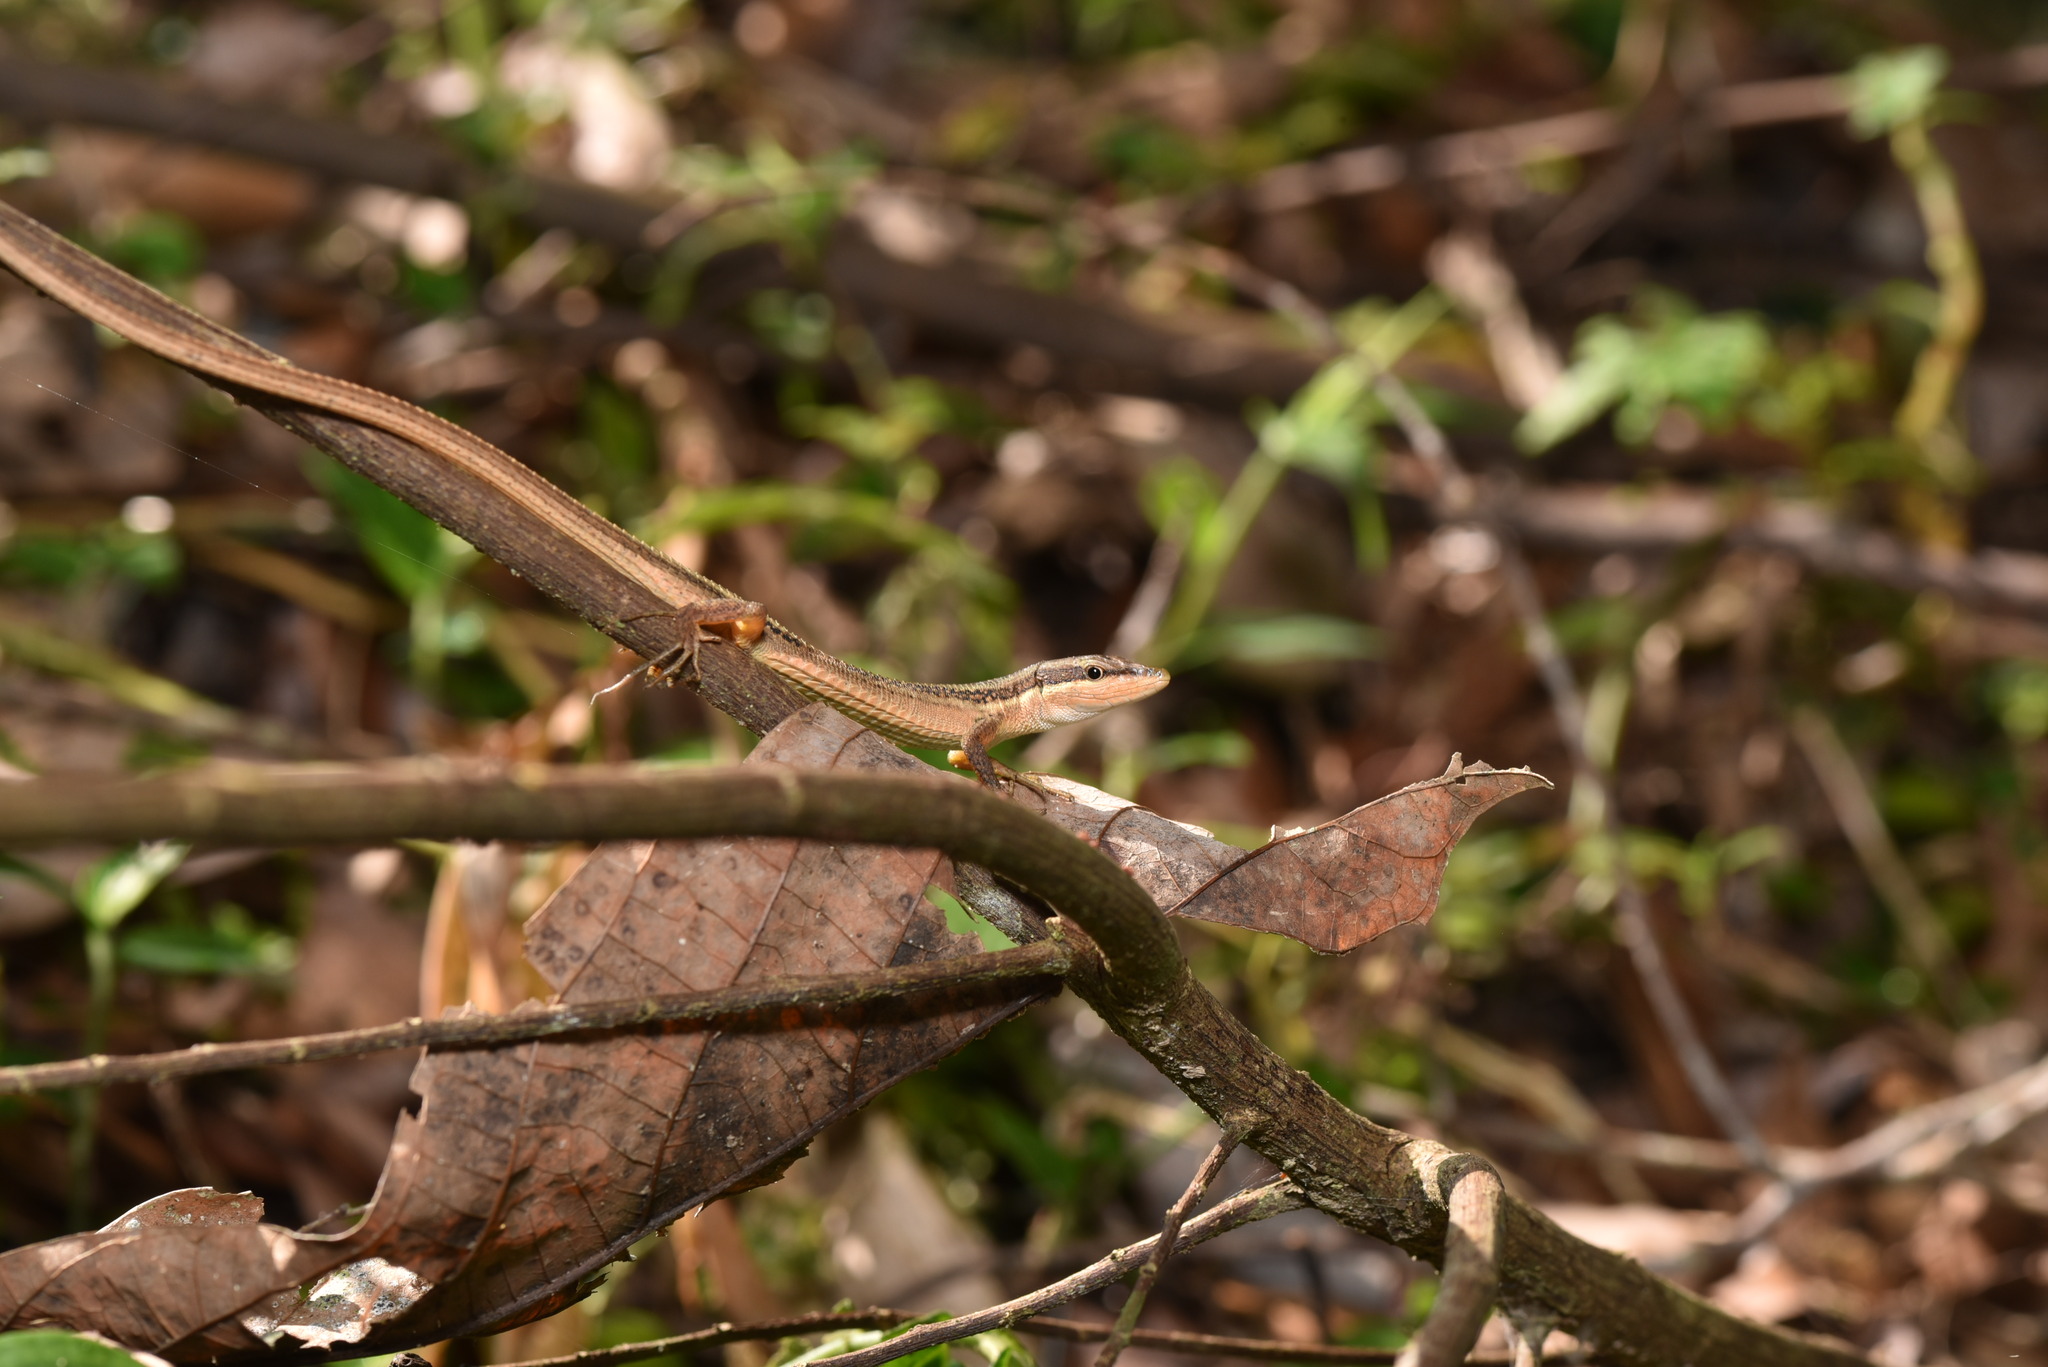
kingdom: Animalia
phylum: Chordata
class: Squamata
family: Lacertidae
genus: Takydromus
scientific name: Takydromus kuehnei
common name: Kuhne’s grass lizard
